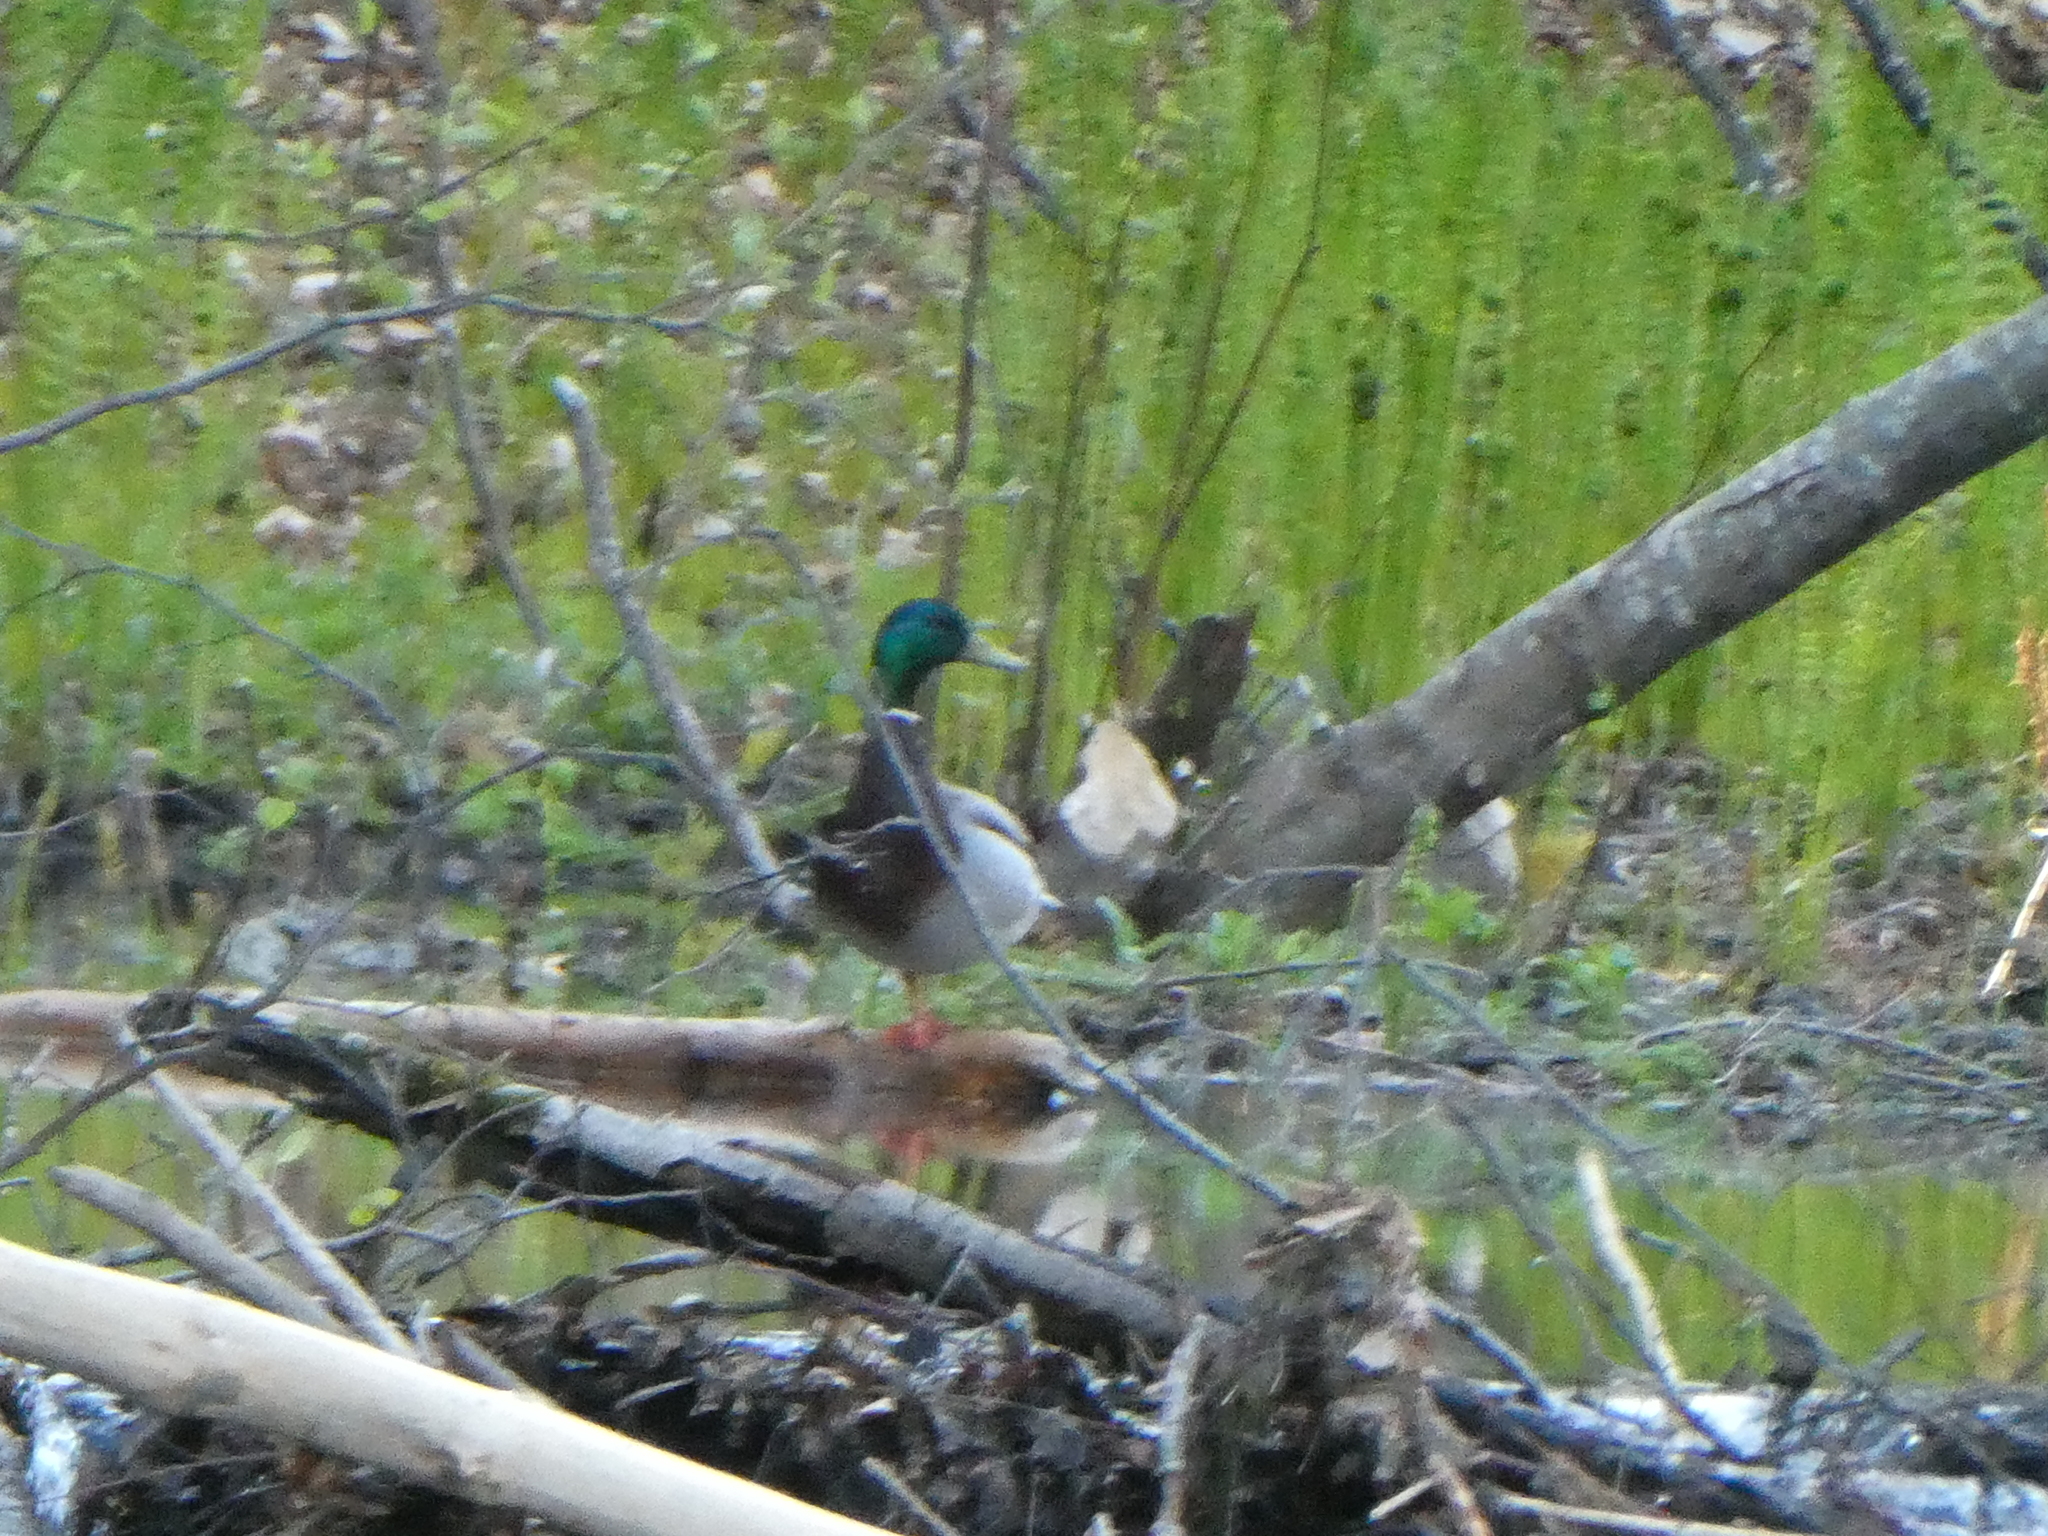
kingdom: Animalia
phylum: Chordata
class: Aves
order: Anseriformes
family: Anatidae
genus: Anas
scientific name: Anas platyrhynchos
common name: Mallard
